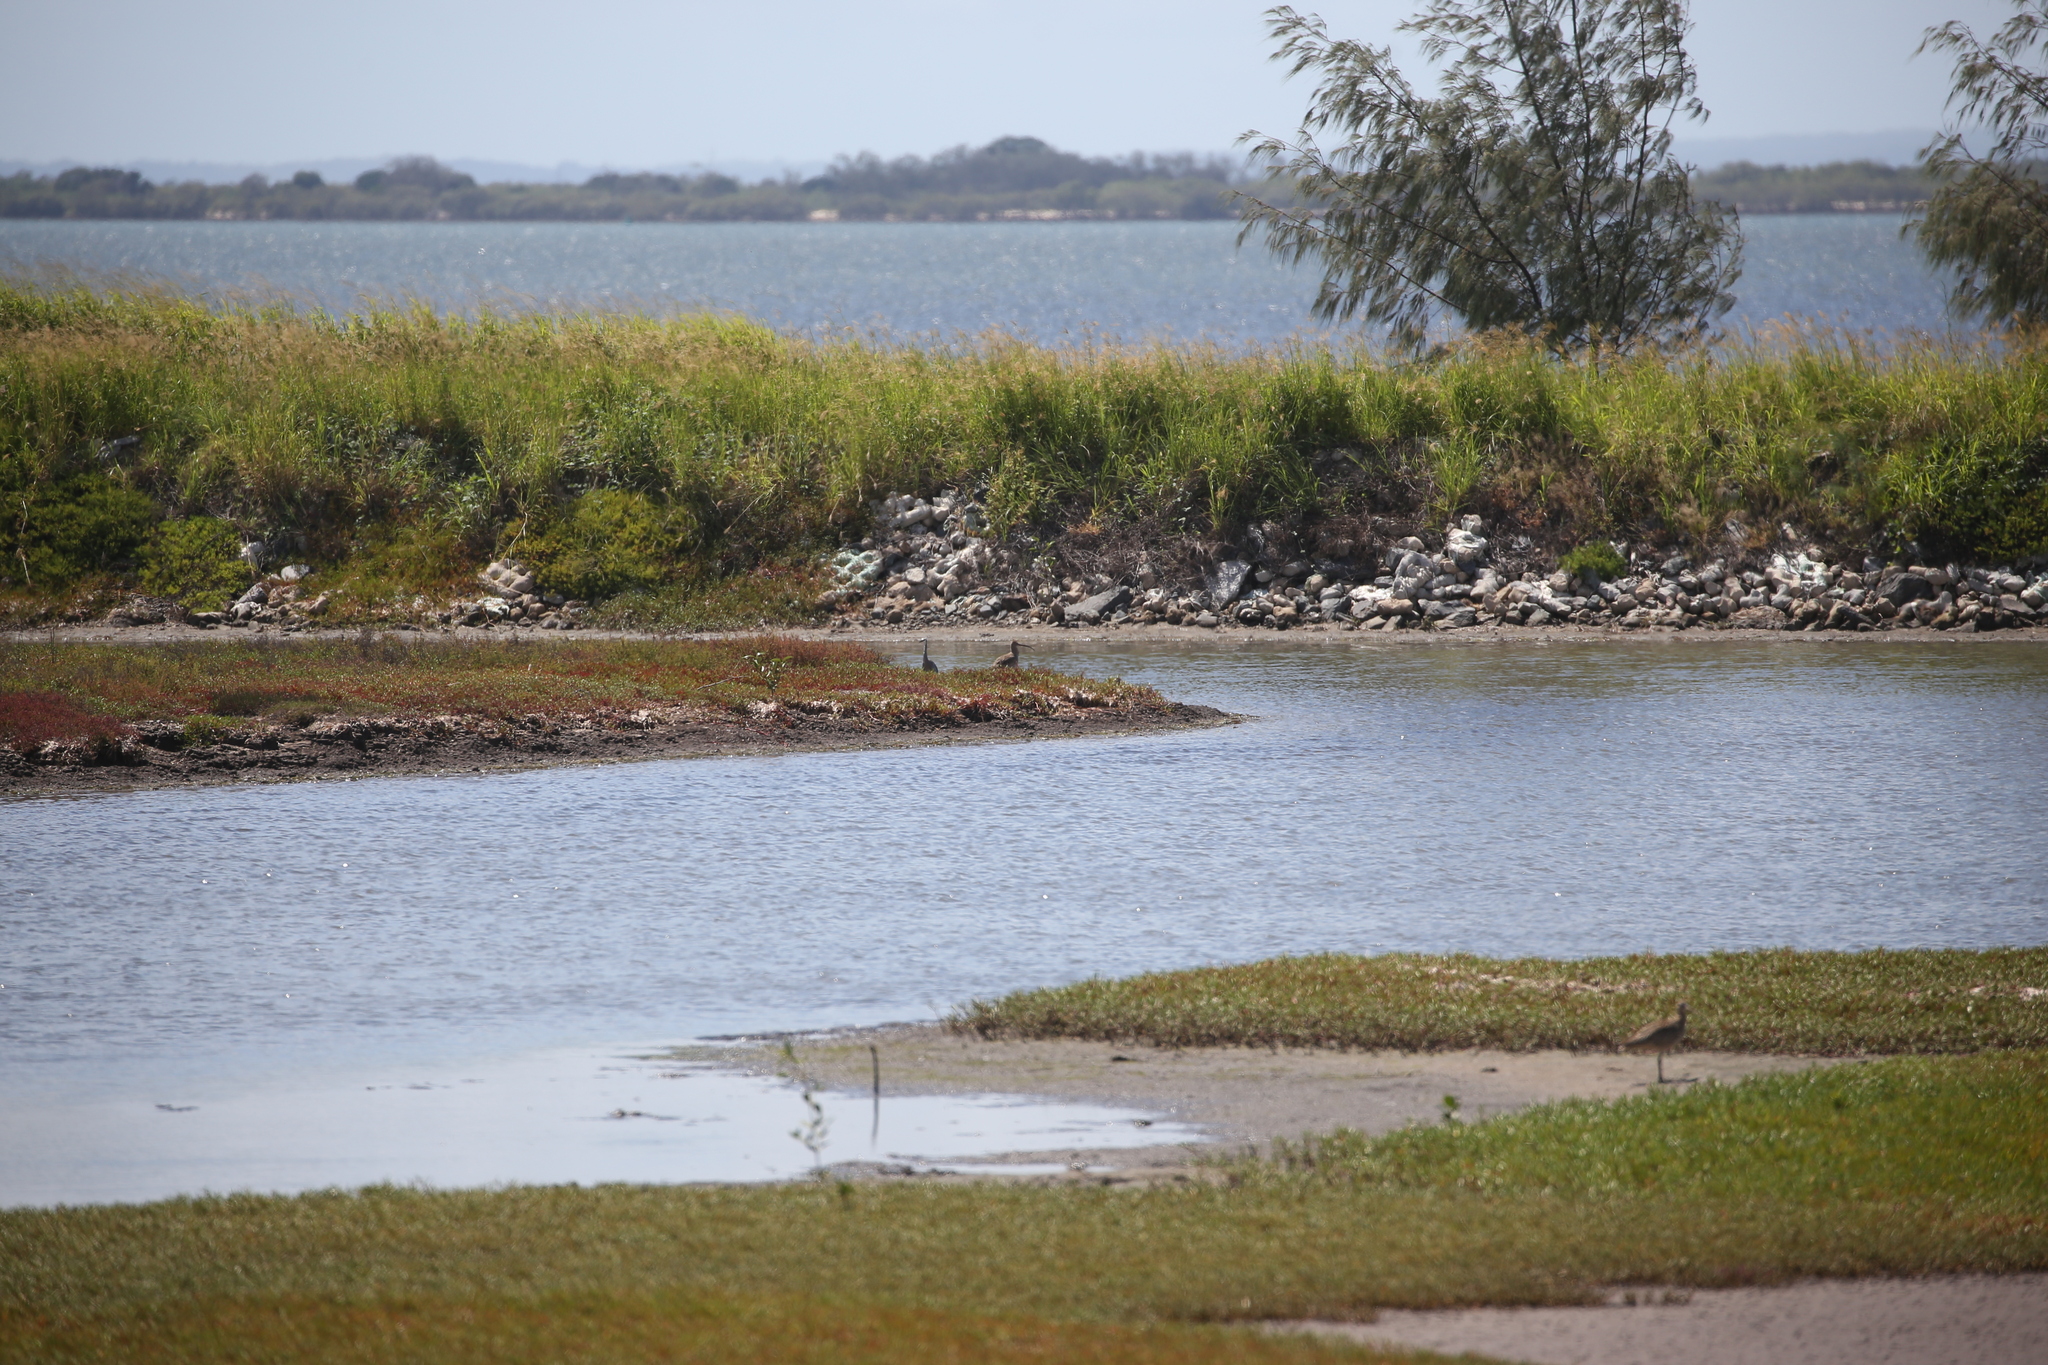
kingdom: Animalia
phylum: Chordata
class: Aves
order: Charadriiformes
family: Scolopacidae
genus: Numenius
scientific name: Numenius madagascariensis
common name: Far eastern curlew
